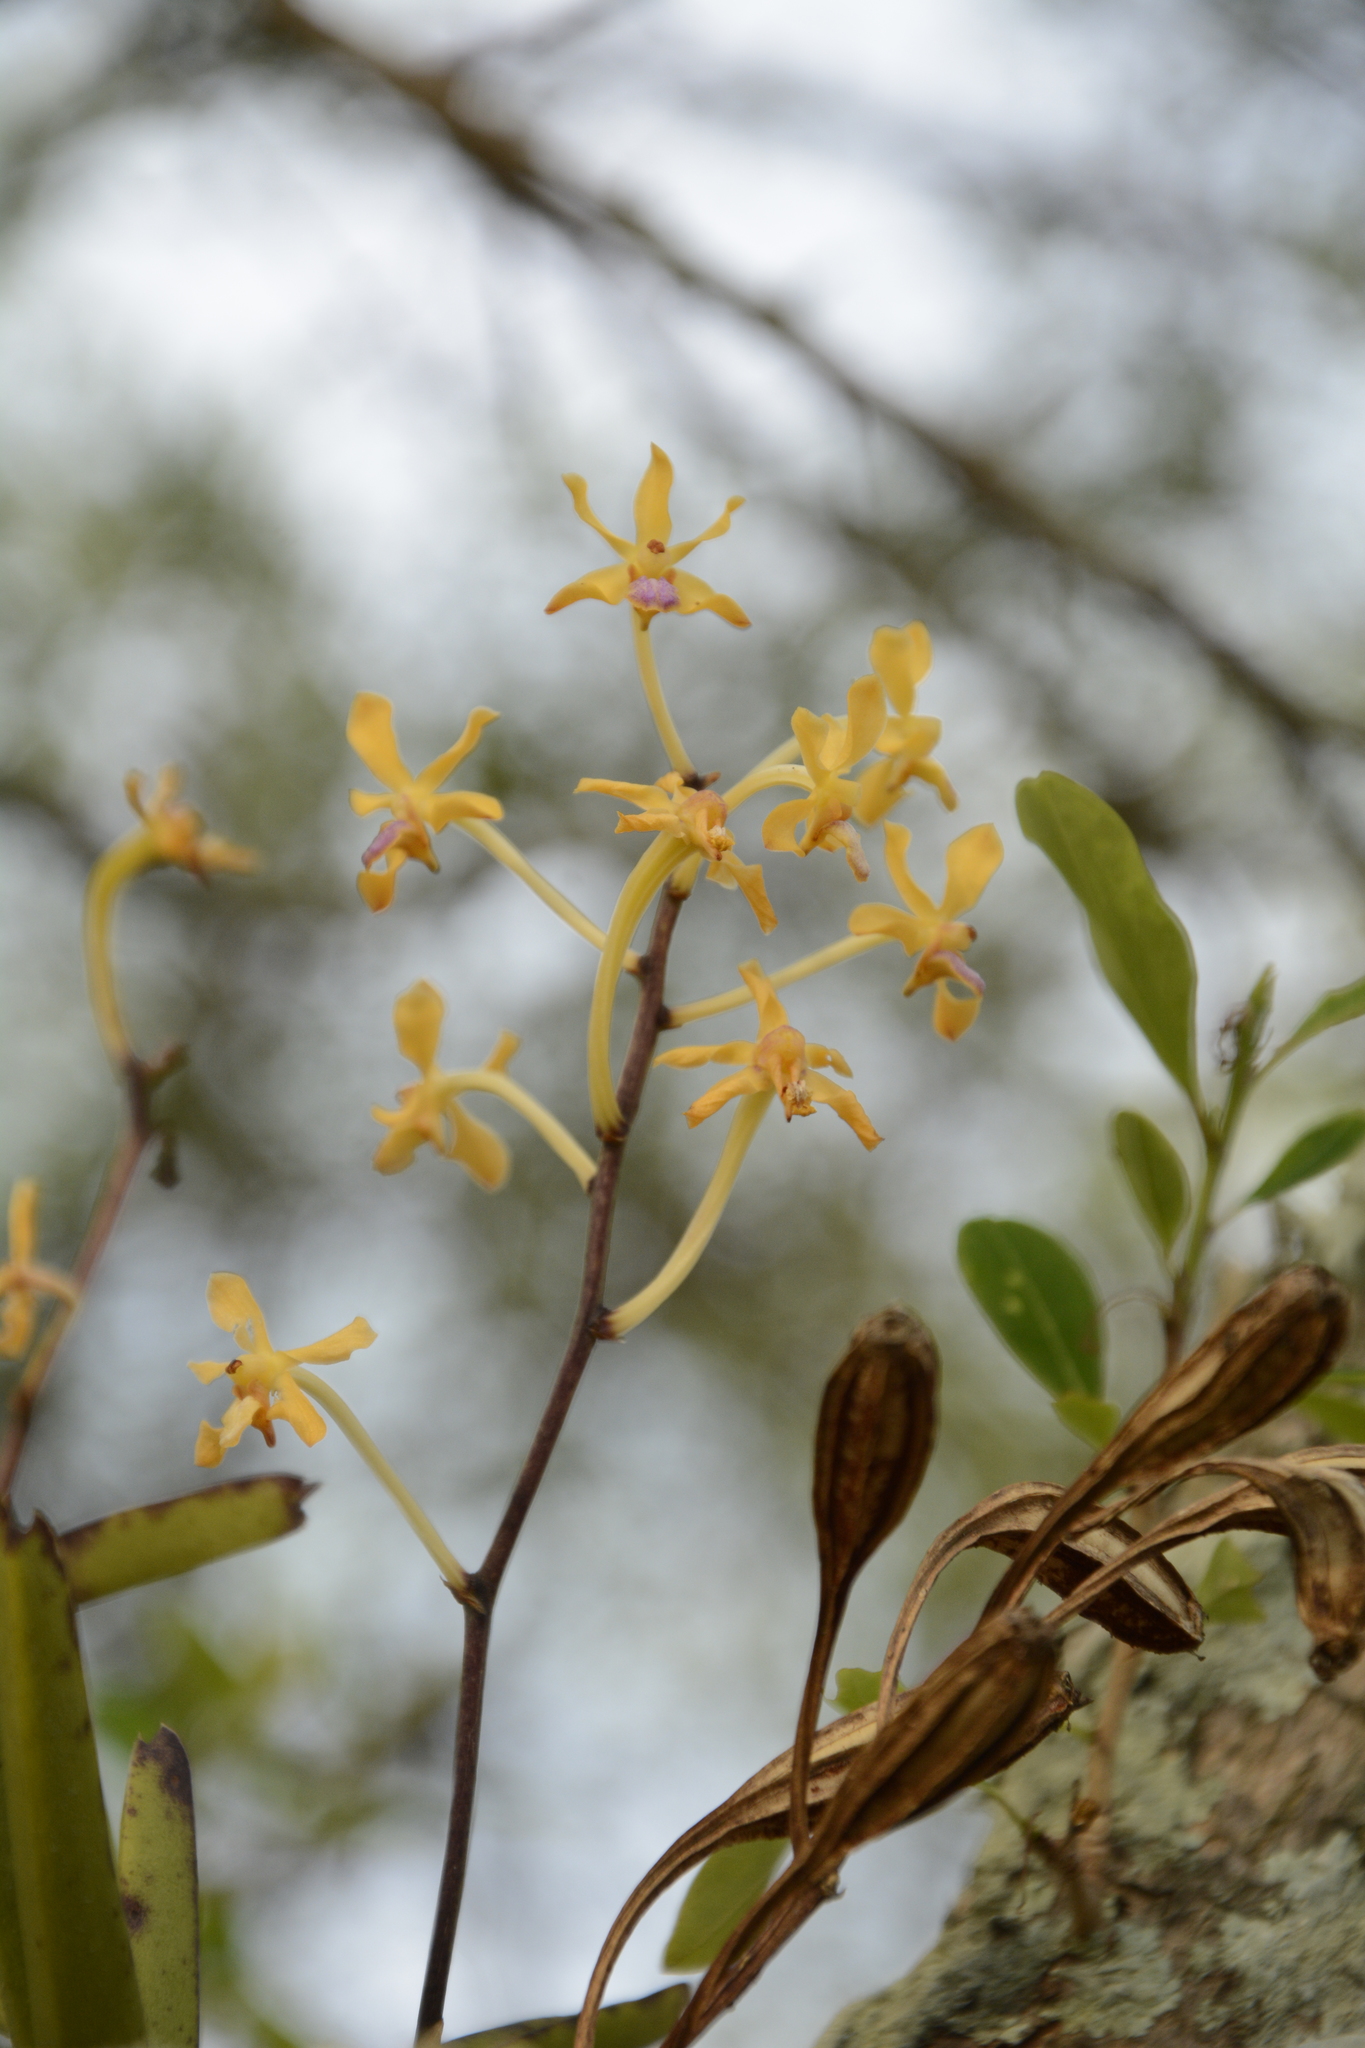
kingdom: Plantae
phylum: Tracheophyta
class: Liliopsida
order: Asparagales
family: Orchidaceae
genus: Vanda
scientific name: Vanda testacea
